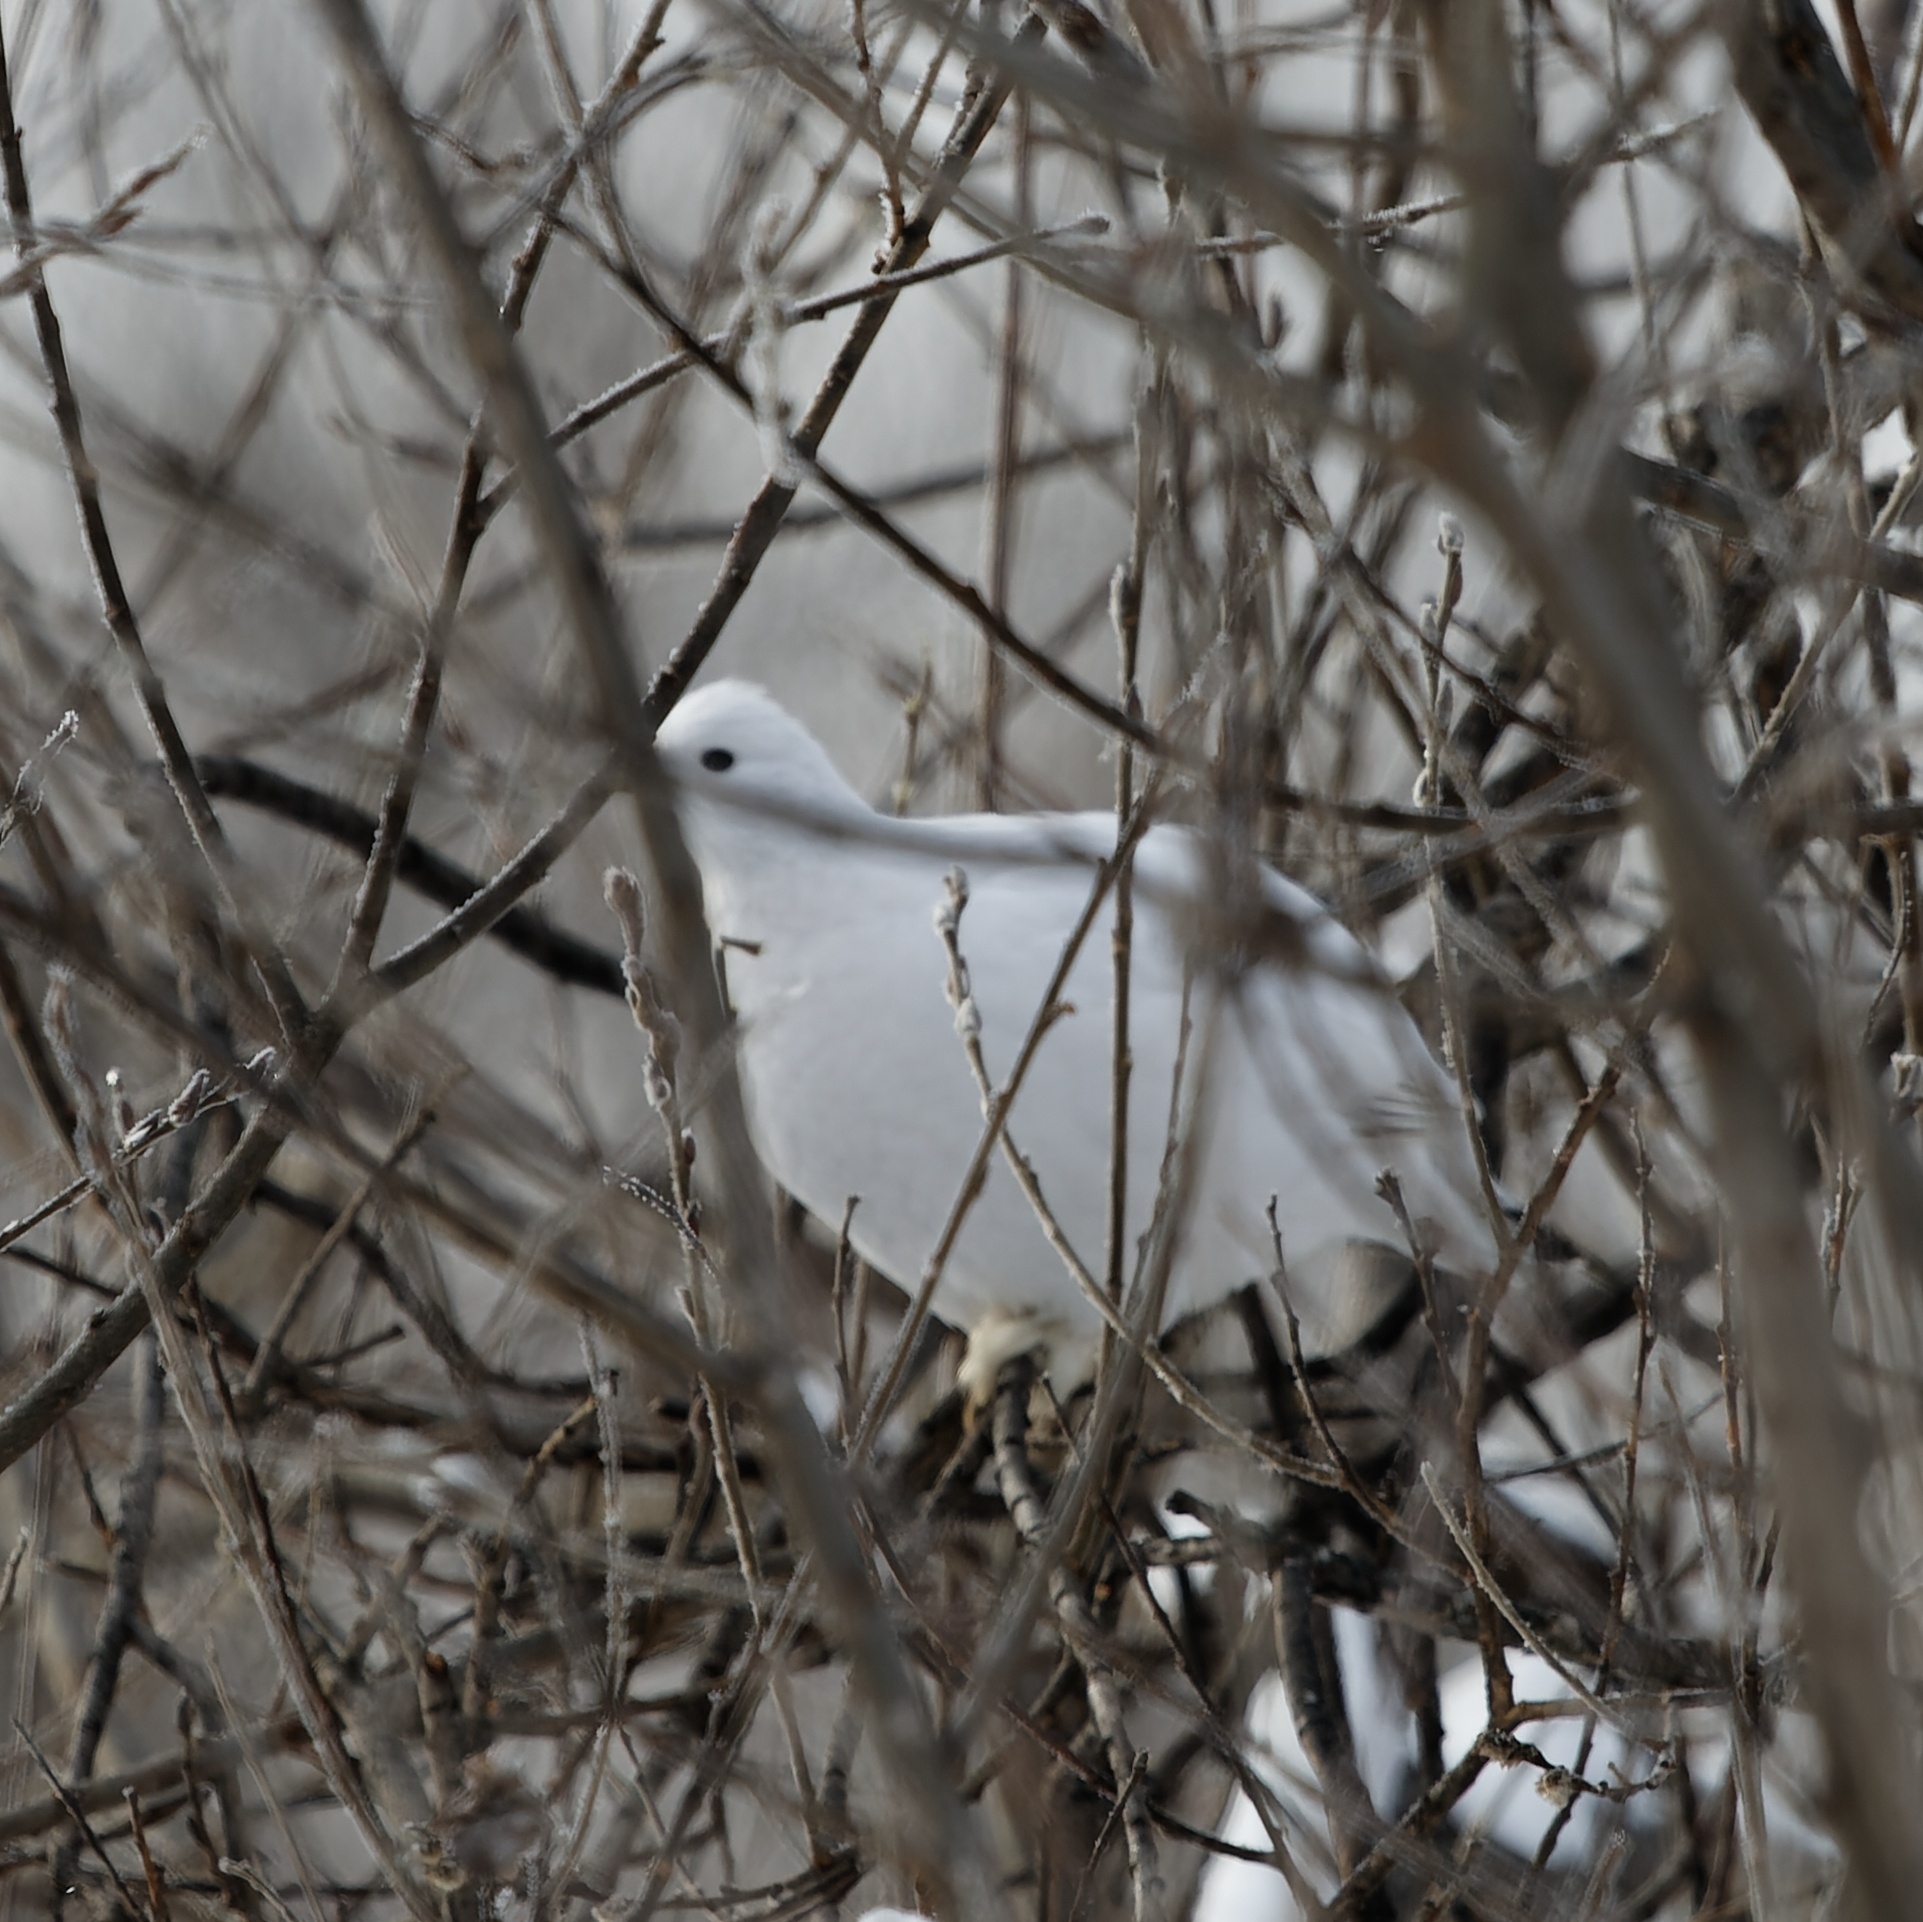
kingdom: Animalia
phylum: Chordata
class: Aves
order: Galliformes
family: Phasianidae
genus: Lagopus
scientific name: Lagopus lagopus
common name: Willow ptarmigan
